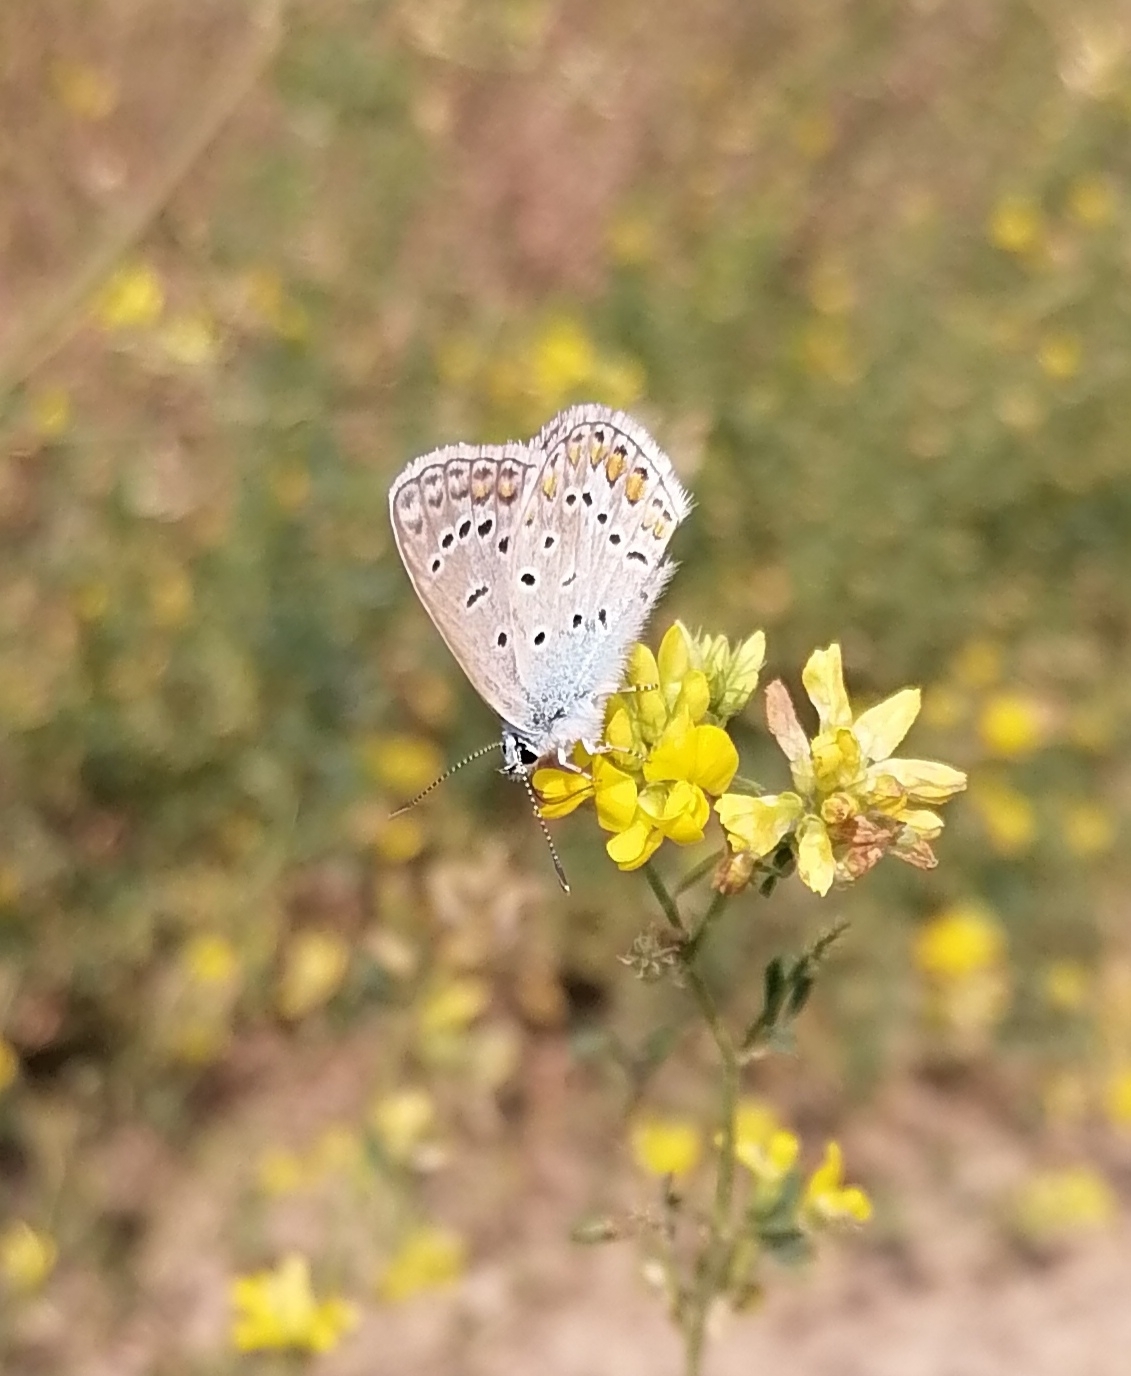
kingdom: Animalia
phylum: Arthropoda
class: Insecta
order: Lepidoptera
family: Lycaenidae
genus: Polyommatus
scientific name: Polyommatus icarus
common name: Common blue
